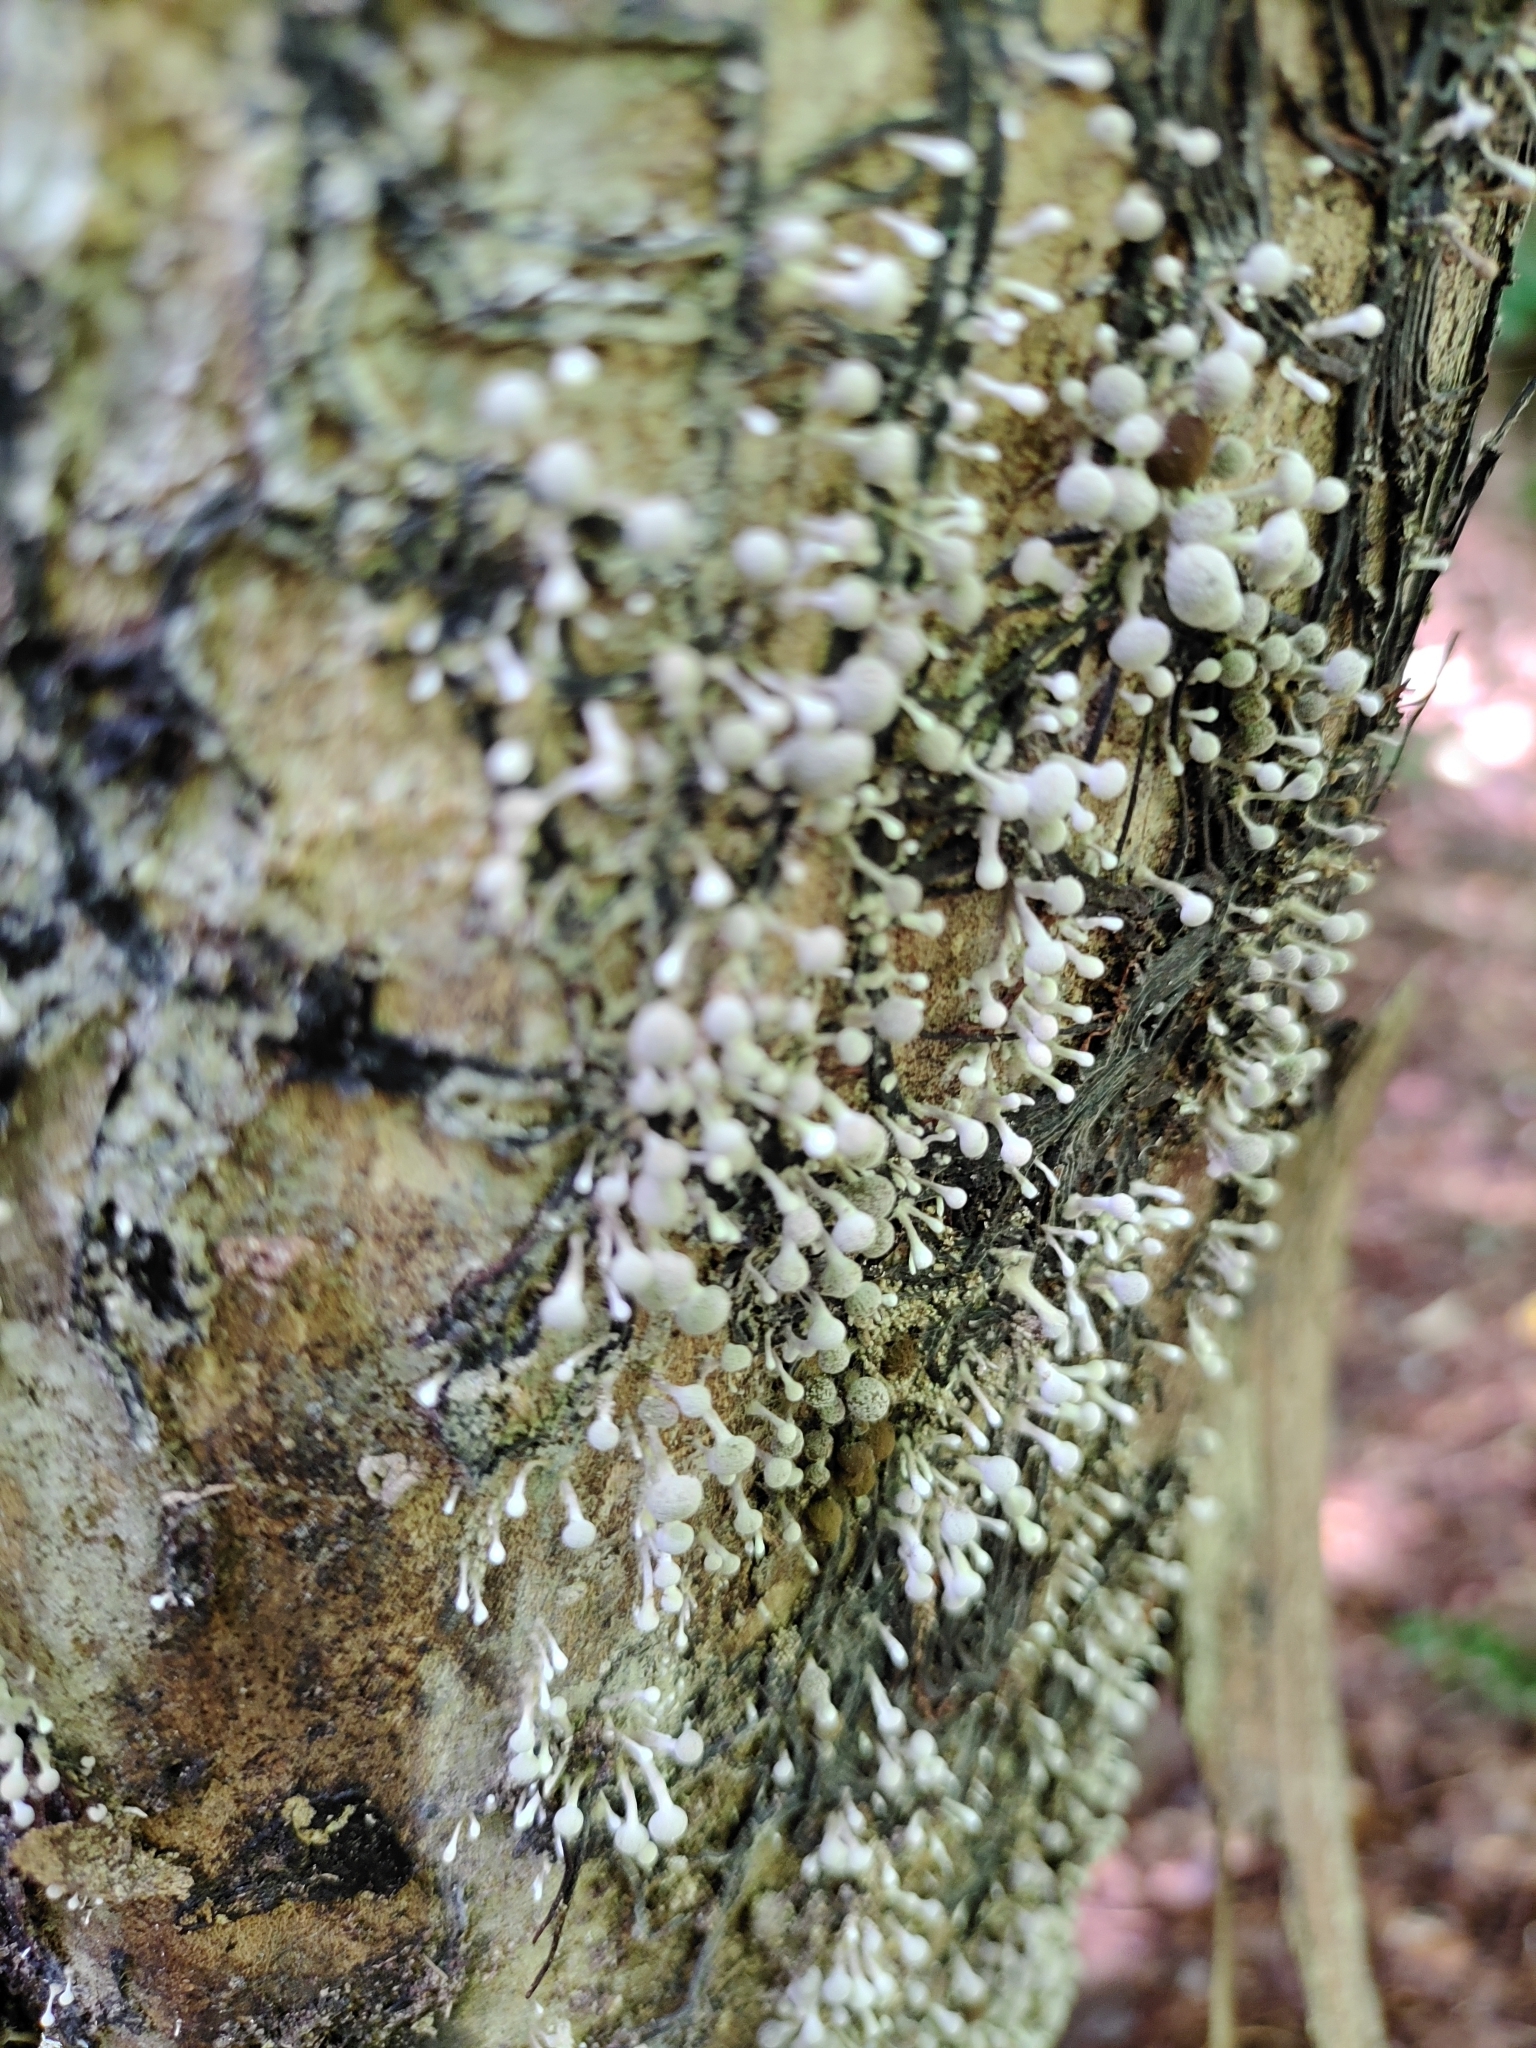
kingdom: Fungi
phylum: Basidiomycota
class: Atractiellomycetes
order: Atractiellales
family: Phleogenaceae
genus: Phleogena
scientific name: Phleogena faginea
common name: Fenugreek stalkball
